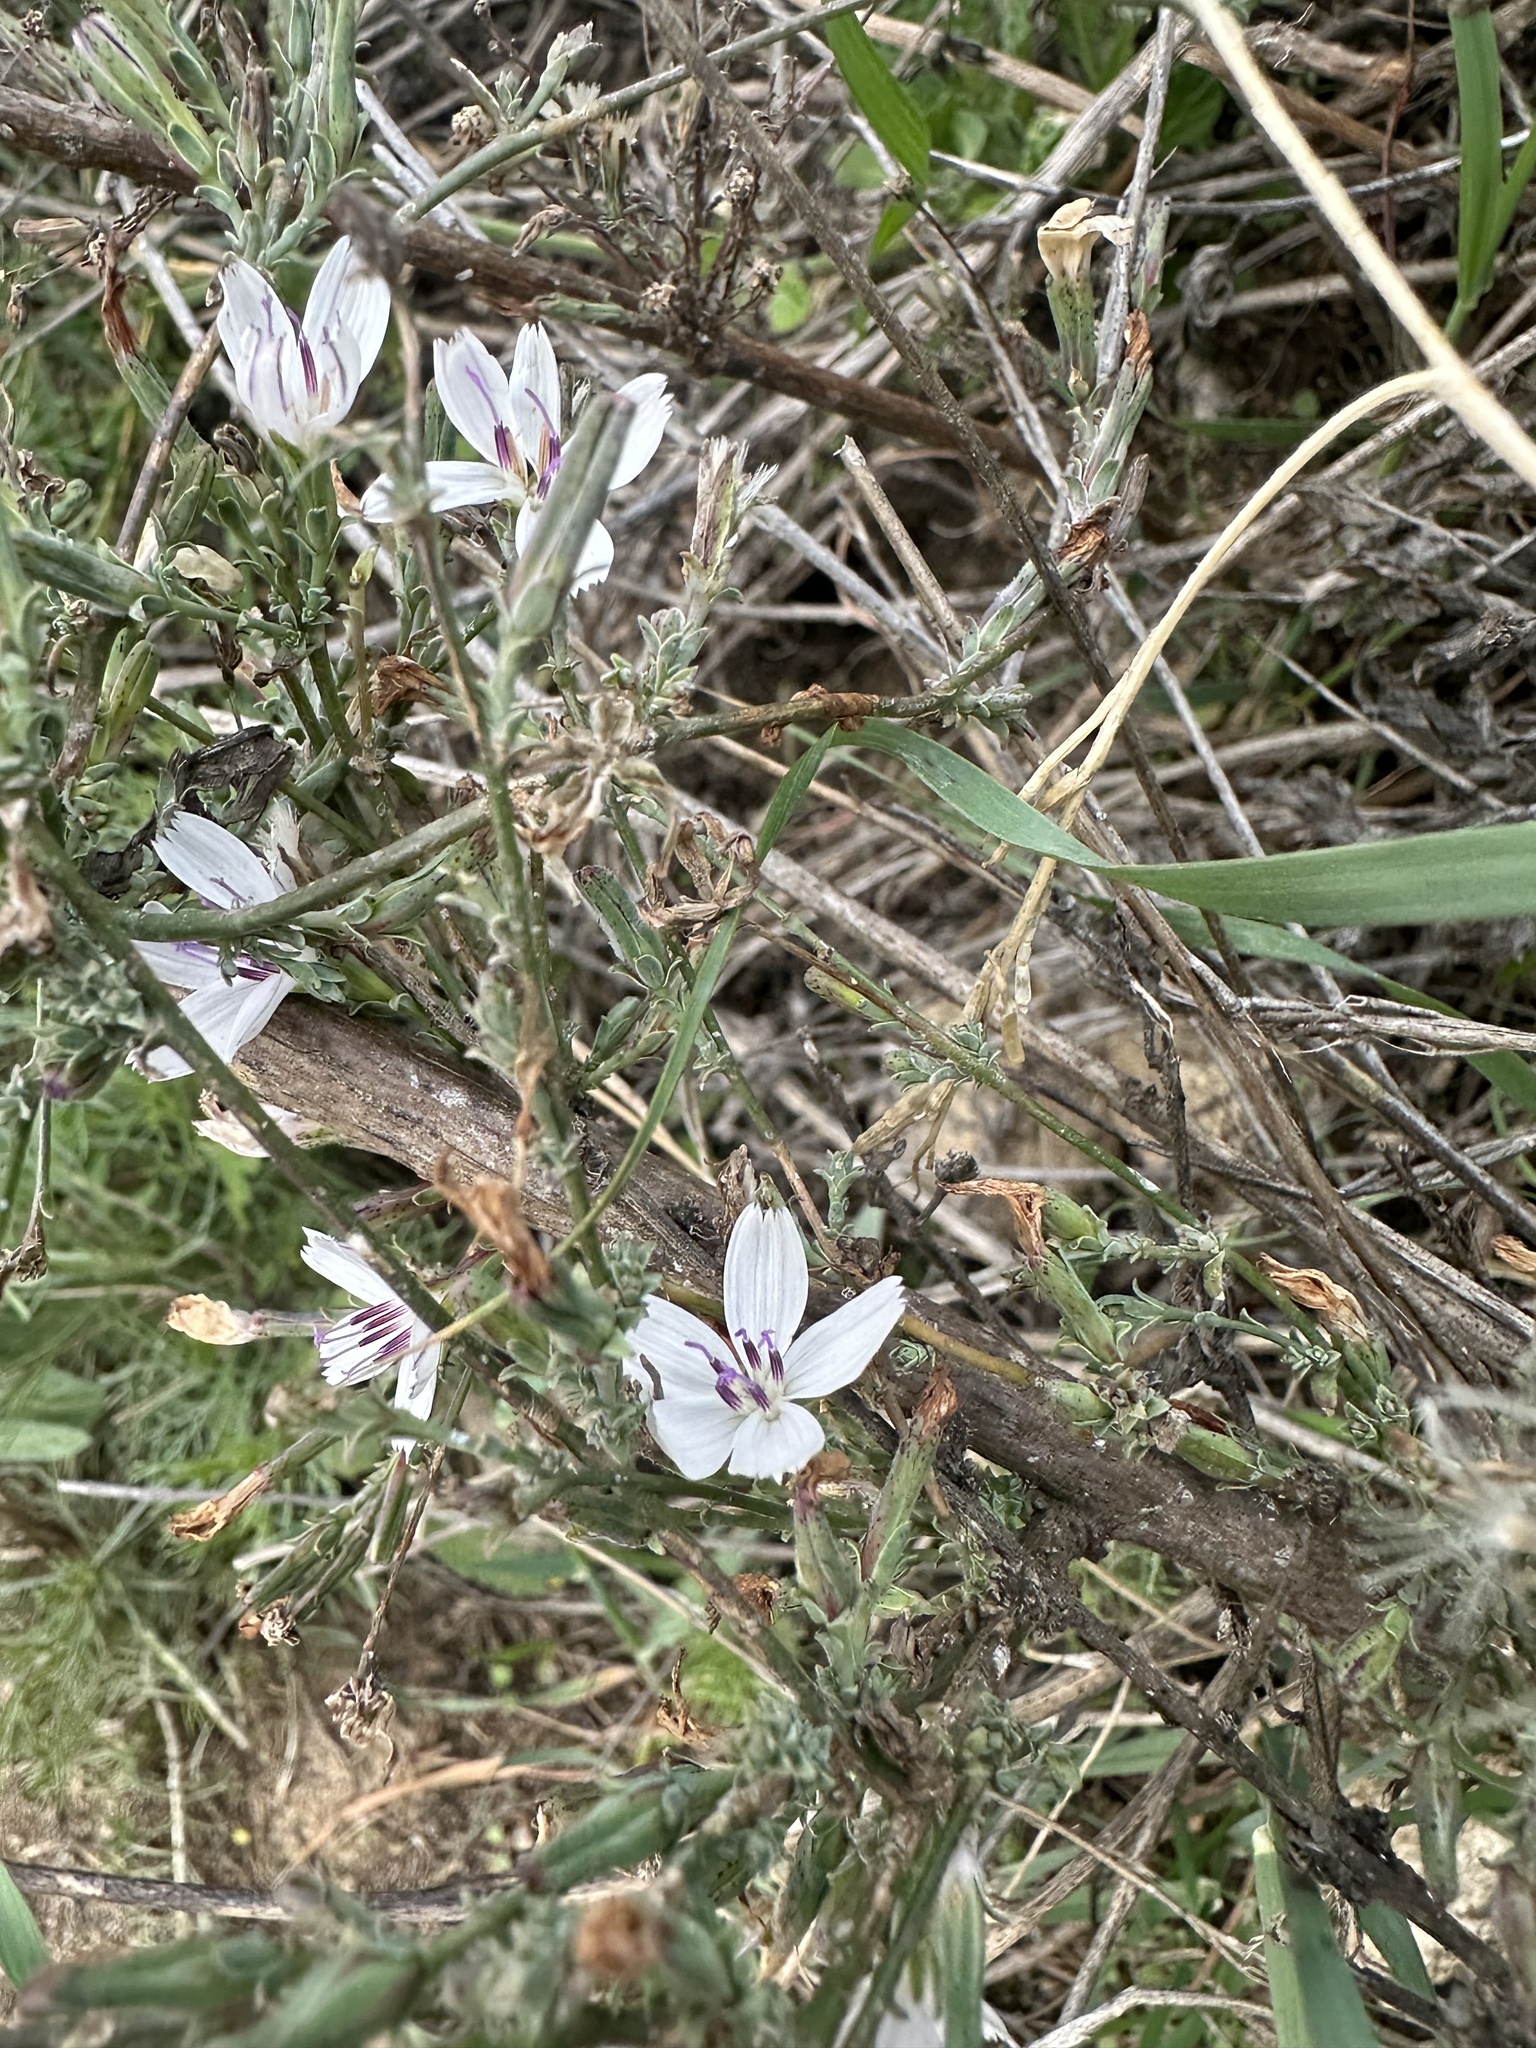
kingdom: Plantae
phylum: Tracheophyta
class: Magnoliopsida
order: Asterales
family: Asteraceae
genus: Stephanomeria
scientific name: Stephanomeria virgata
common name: Virgate wirelettuce
